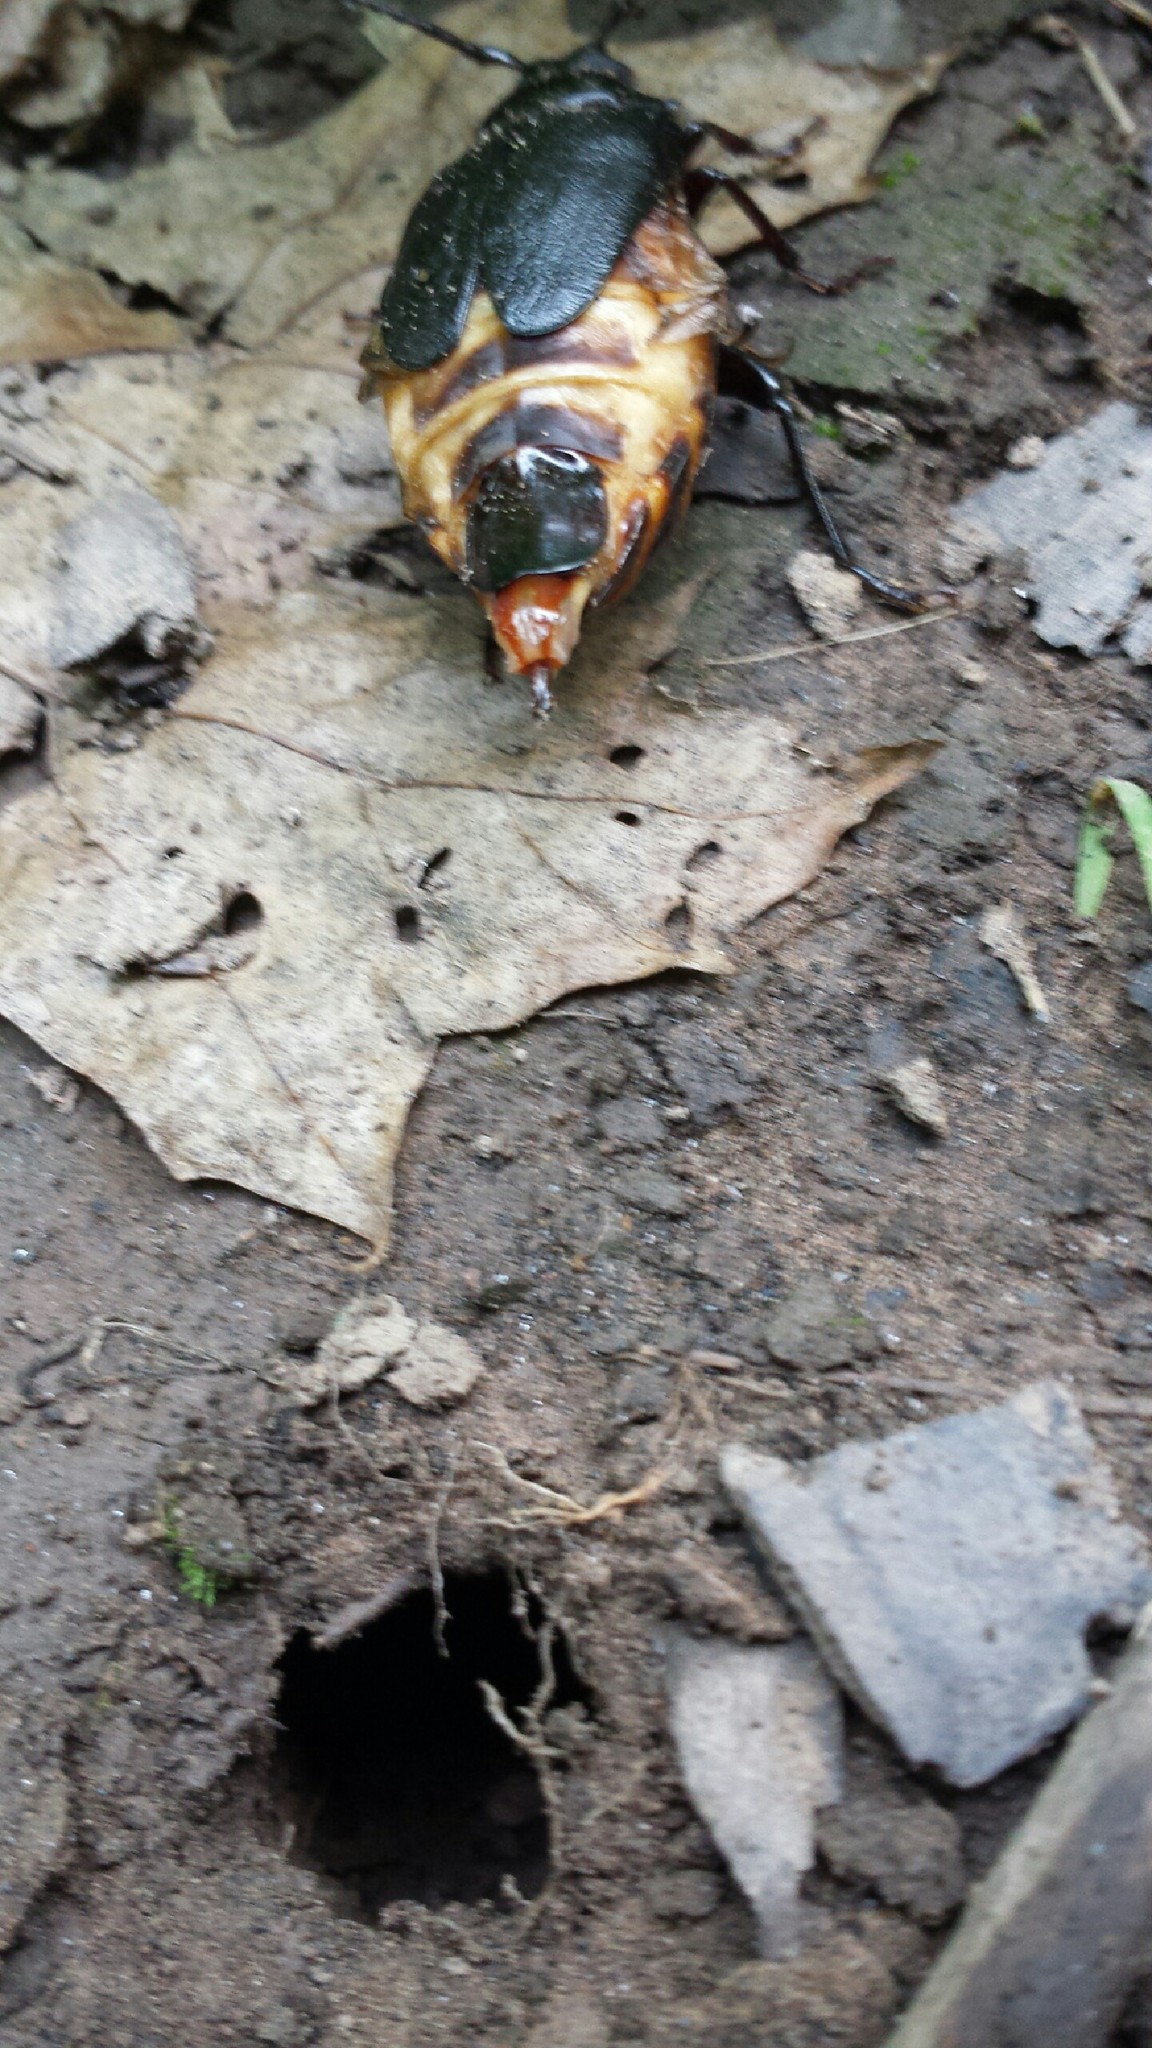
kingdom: Animalia
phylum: Arthropoda
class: Insecta
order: Coleoptera
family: Cerambycidae
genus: Prionus
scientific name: Prionus laticollis
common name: Broad necked prionus
